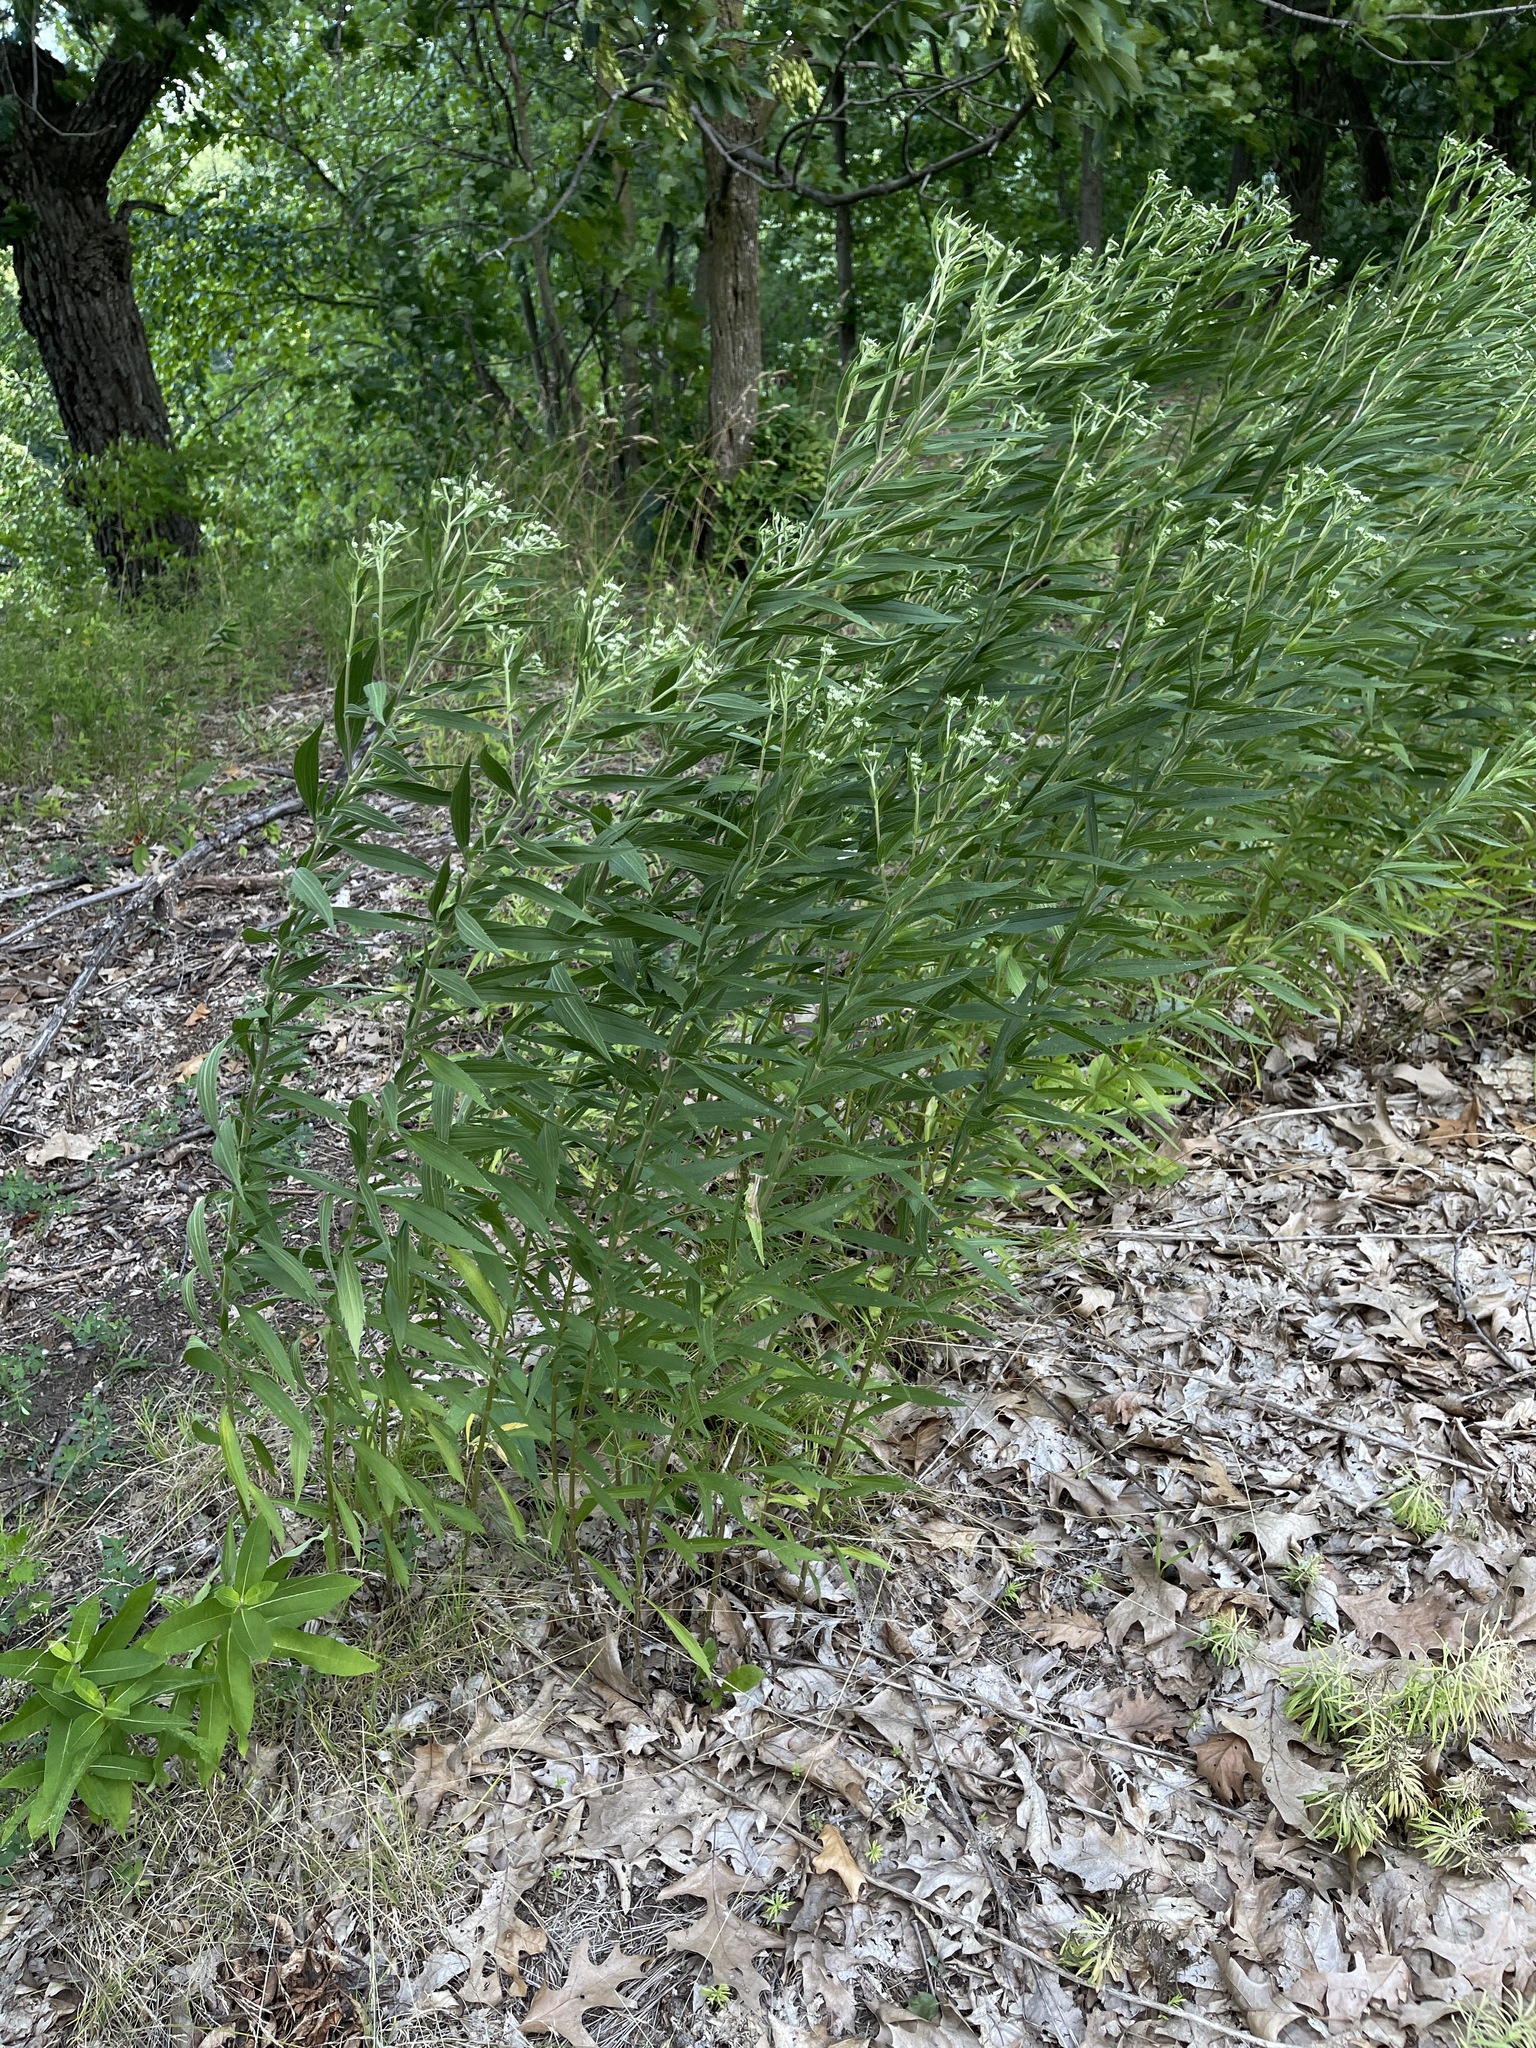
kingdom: Plantae
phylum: Tracheophyta
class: Magnoliopsida
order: Asterales
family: Asteraceae
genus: Eupatorium
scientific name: Eupatorium altissimum
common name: Tall thoroughwort
